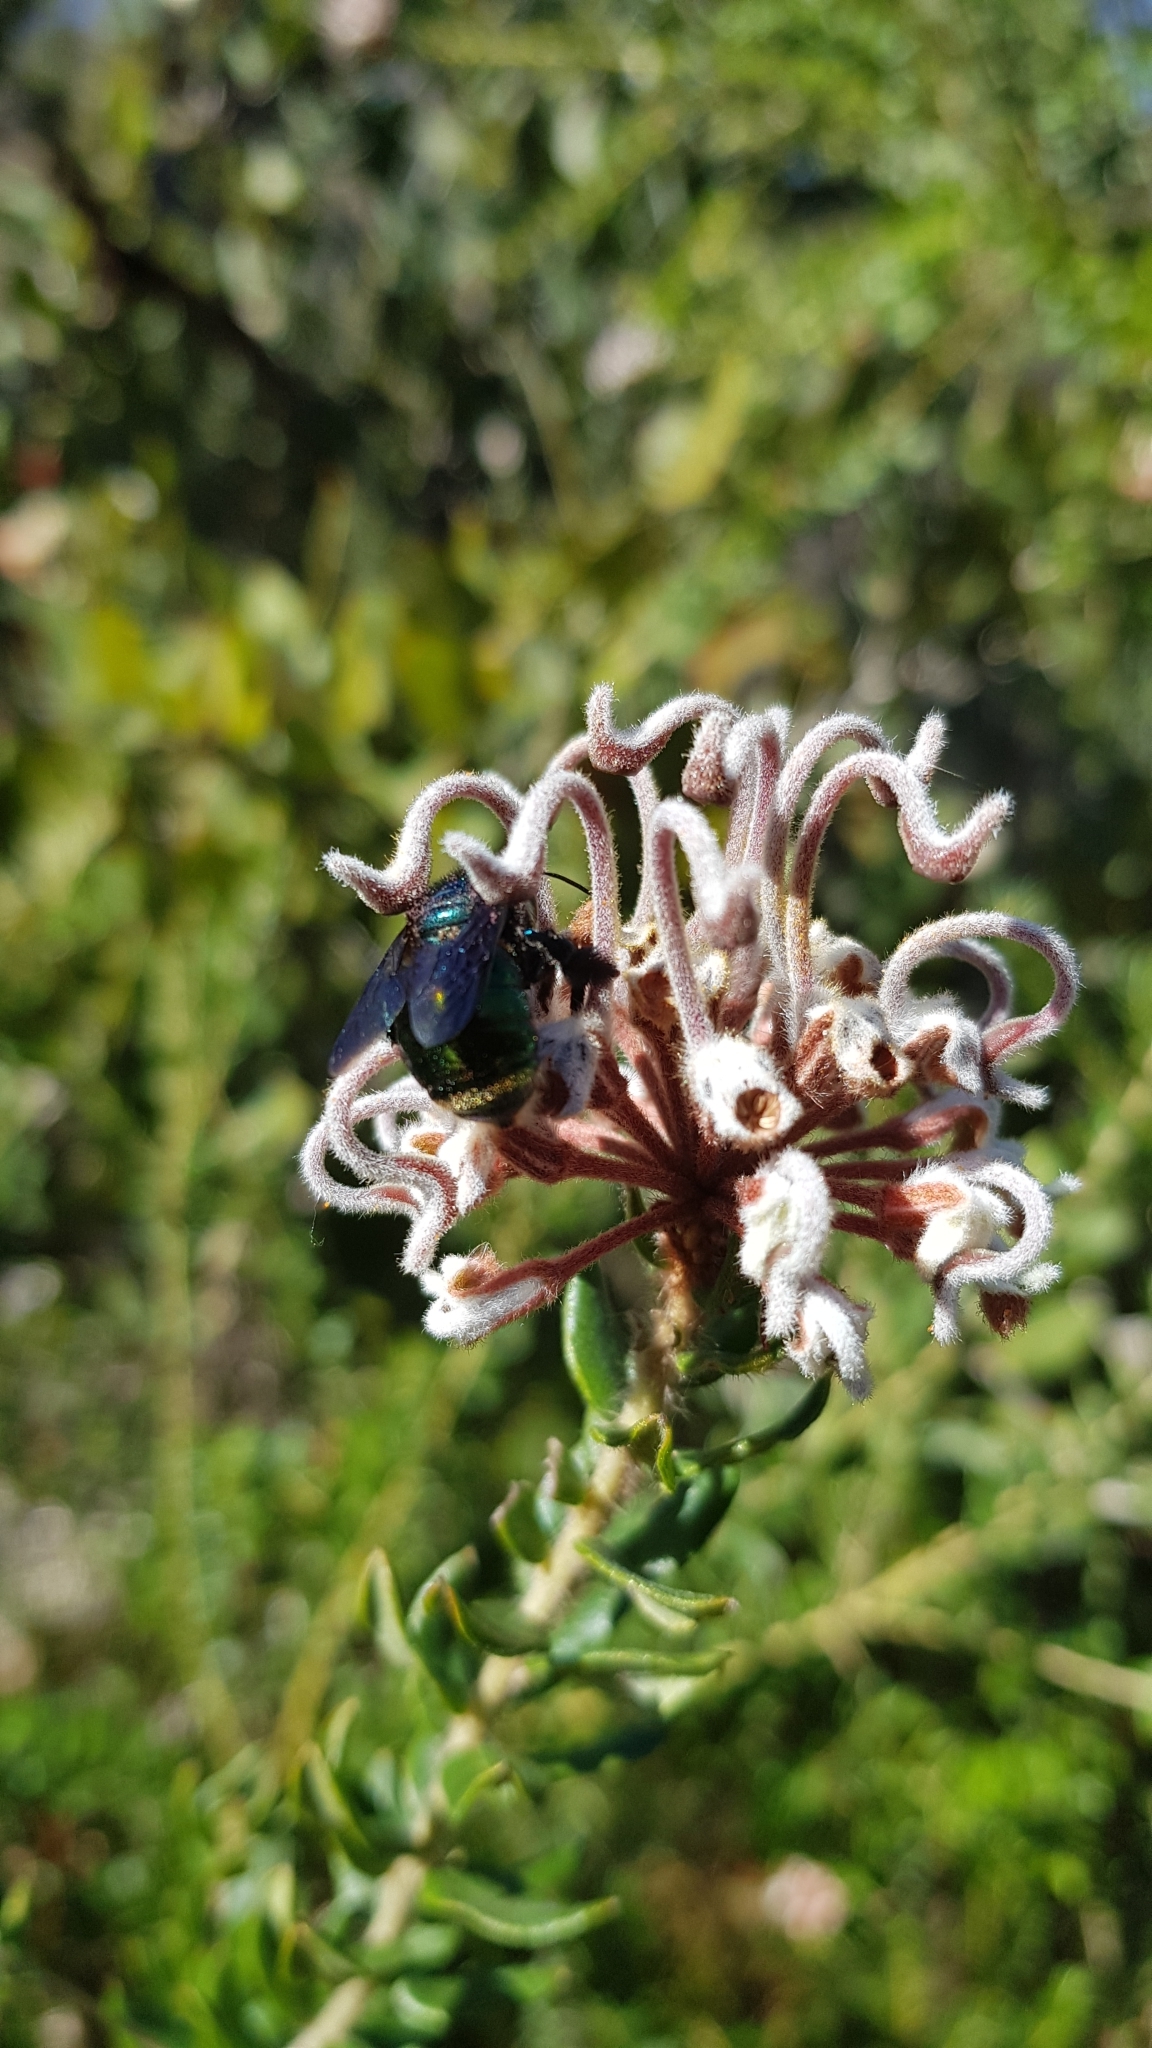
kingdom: Plantae
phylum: Tracheophyta
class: Magnoliopsida
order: Proteales
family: Proteaceae
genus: Grevillea
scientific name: Grevillea buxifolia
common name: Grey spiderflower
